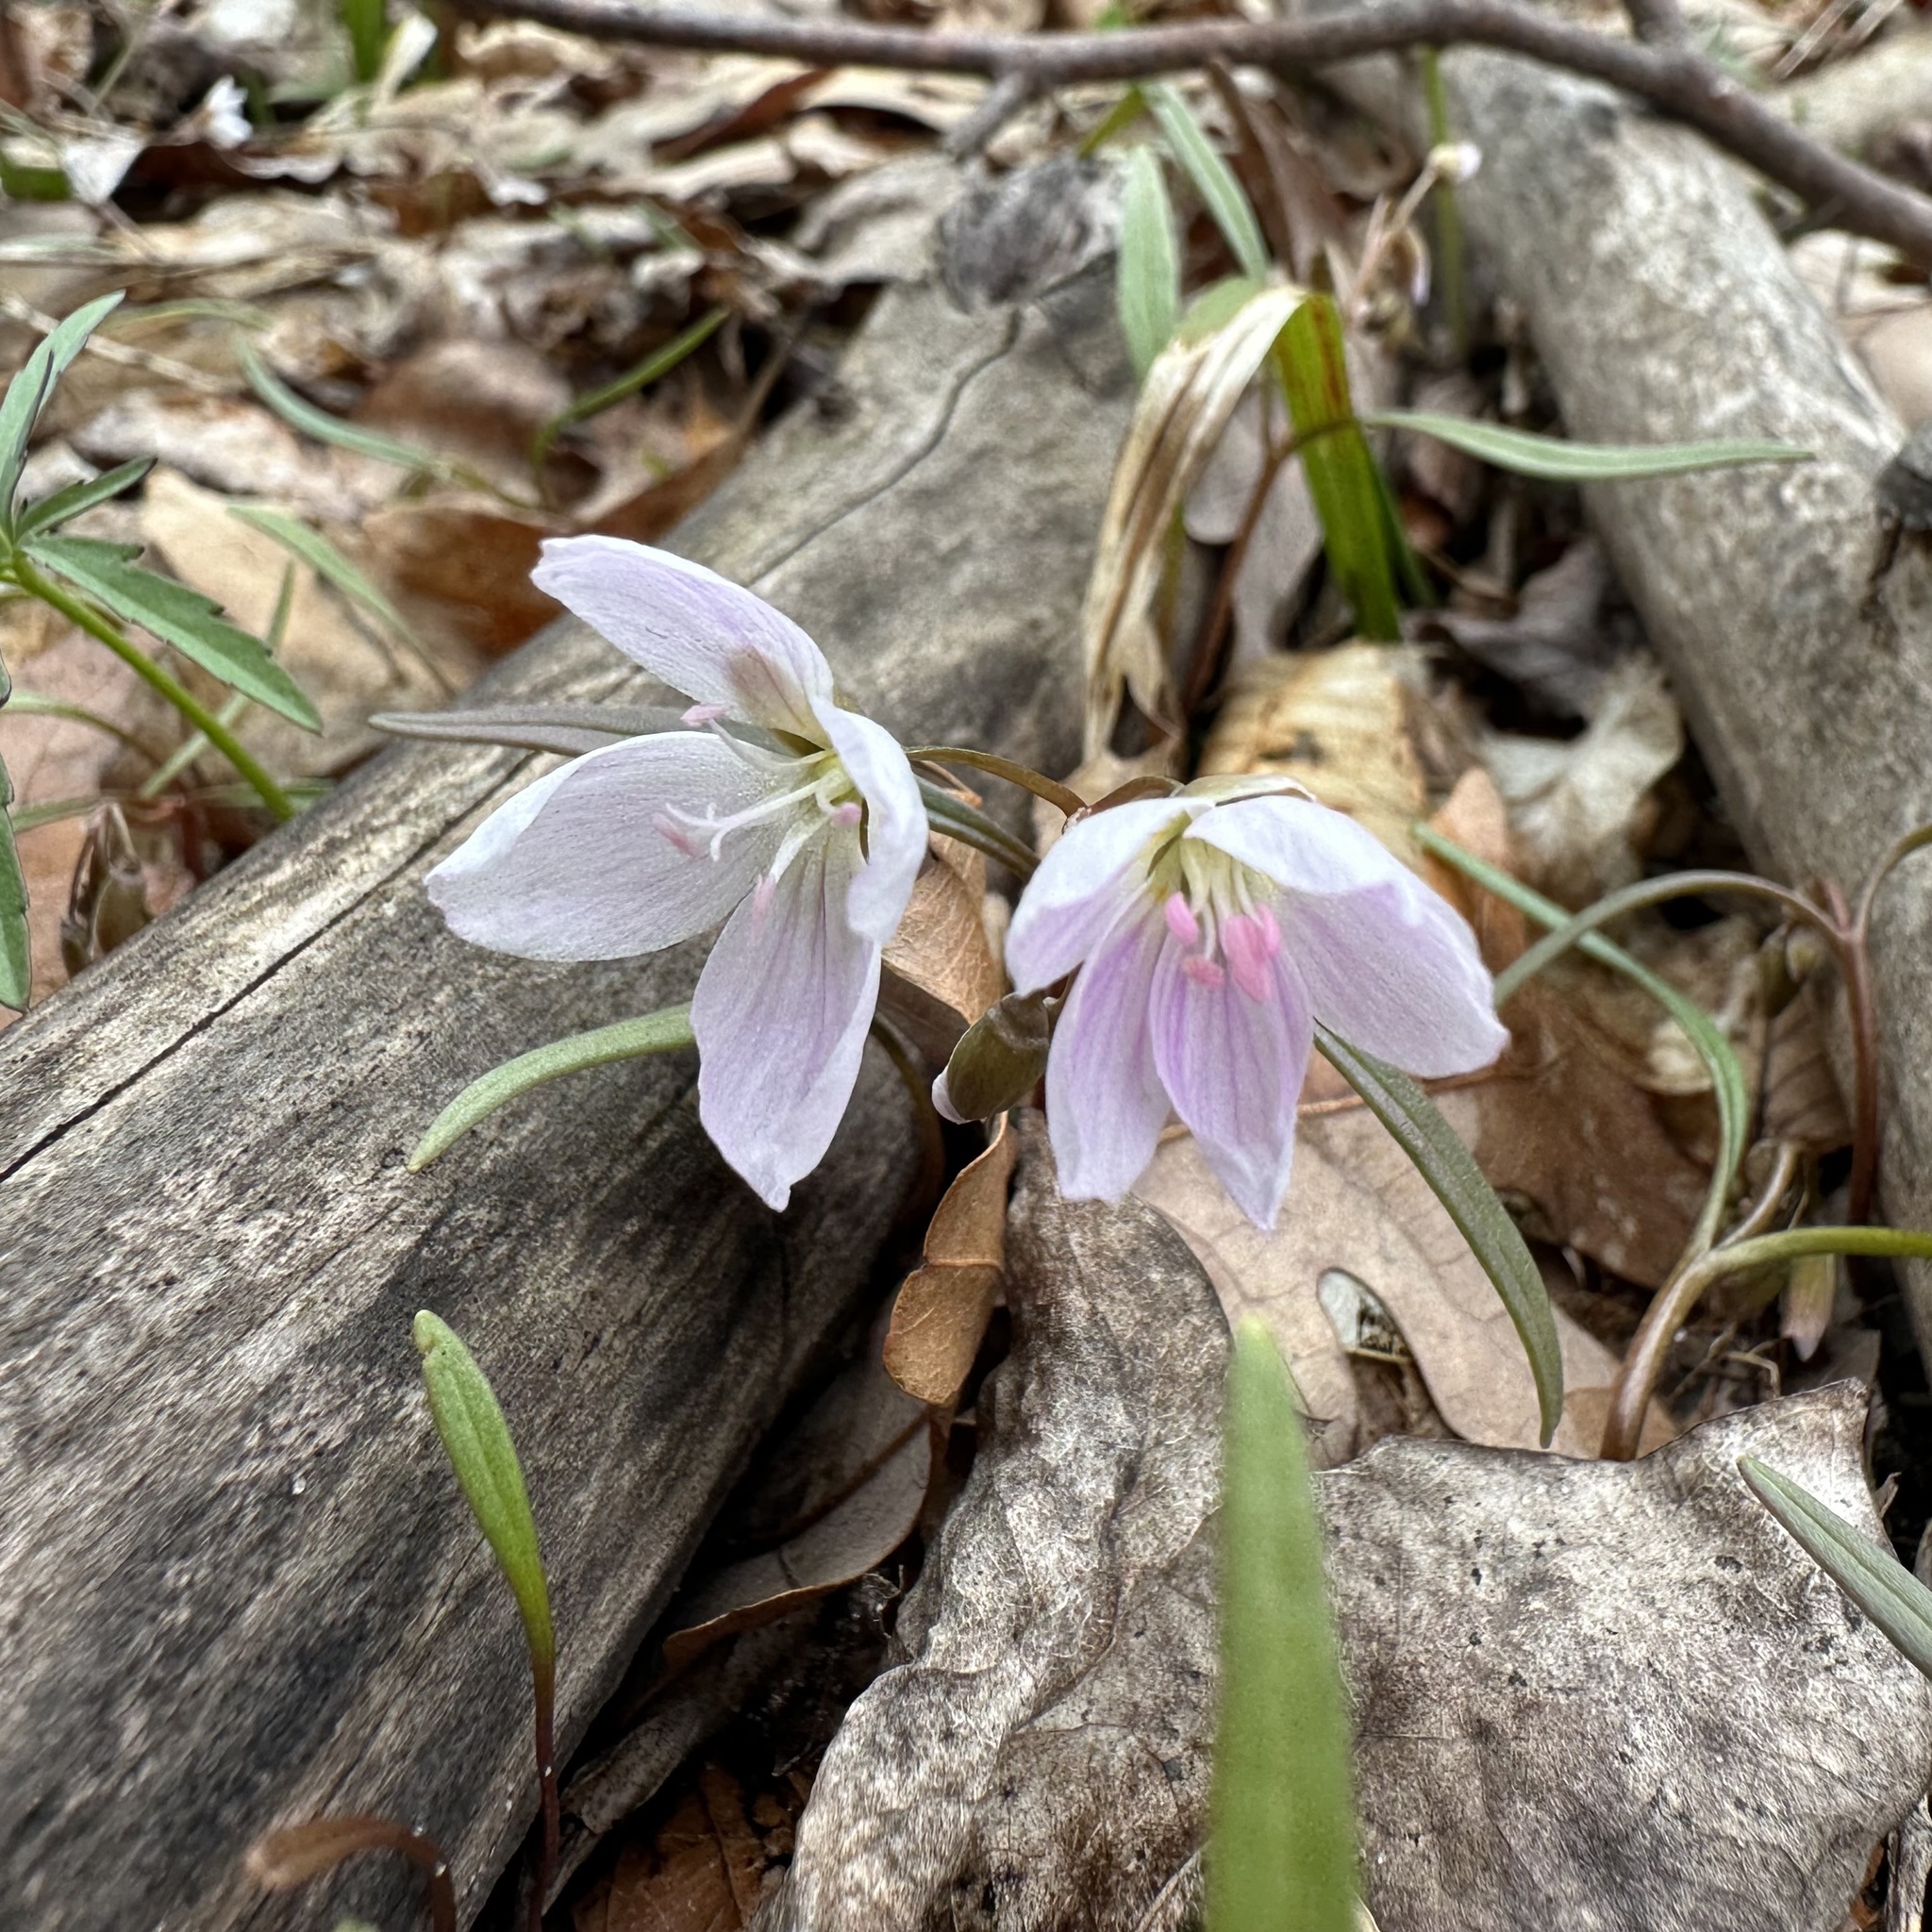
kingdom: Plantae
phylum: Tracheophyta
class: Magnoliopsida
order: Caryophyllales
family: Montiaceae
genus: Claytonia
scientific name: Claytonia virginica
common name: Virginia springbeauty
